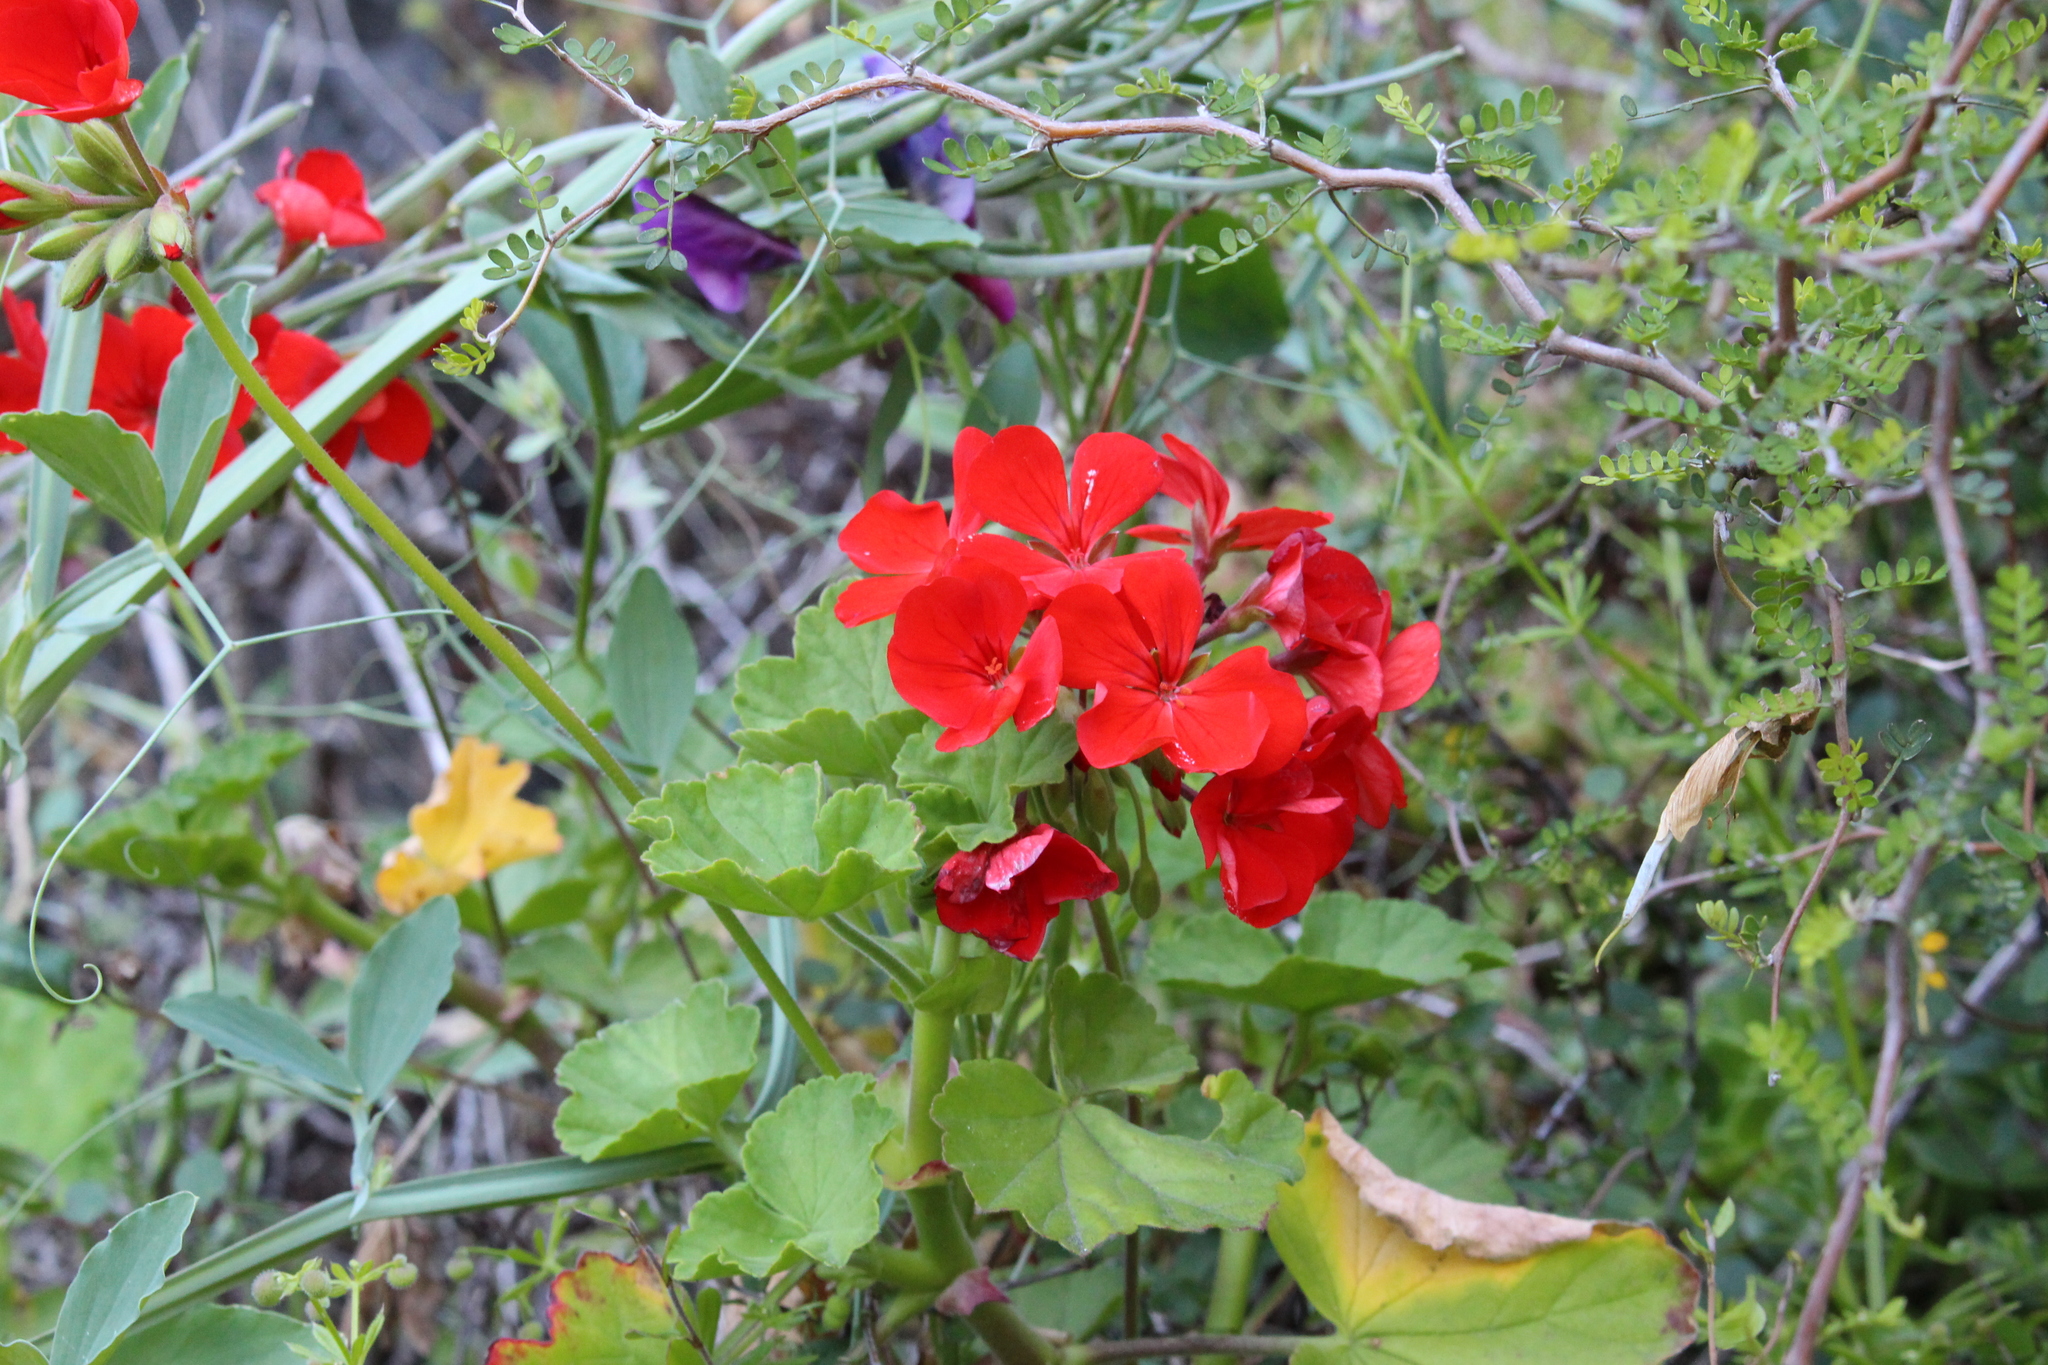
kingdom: Plantae
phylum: Tracheophyta
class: Magnoliopsida
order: Geraniales
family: Geraniaceae
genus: Pelargonium
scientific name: Pelargonium hybridum
